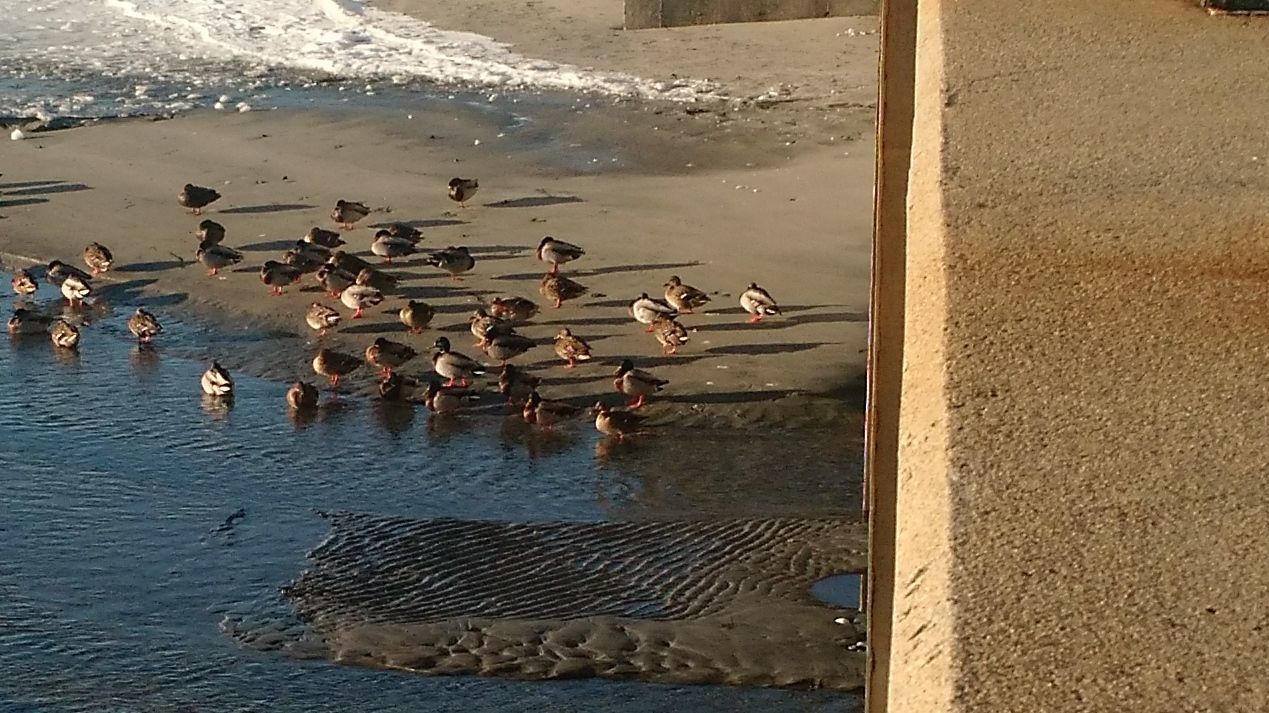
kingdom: Animalia
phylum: Chordata
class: Aves
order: Anseriformes
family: Anatidae
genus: Anas
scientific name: Anas platyrhynchos
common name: Mallard
